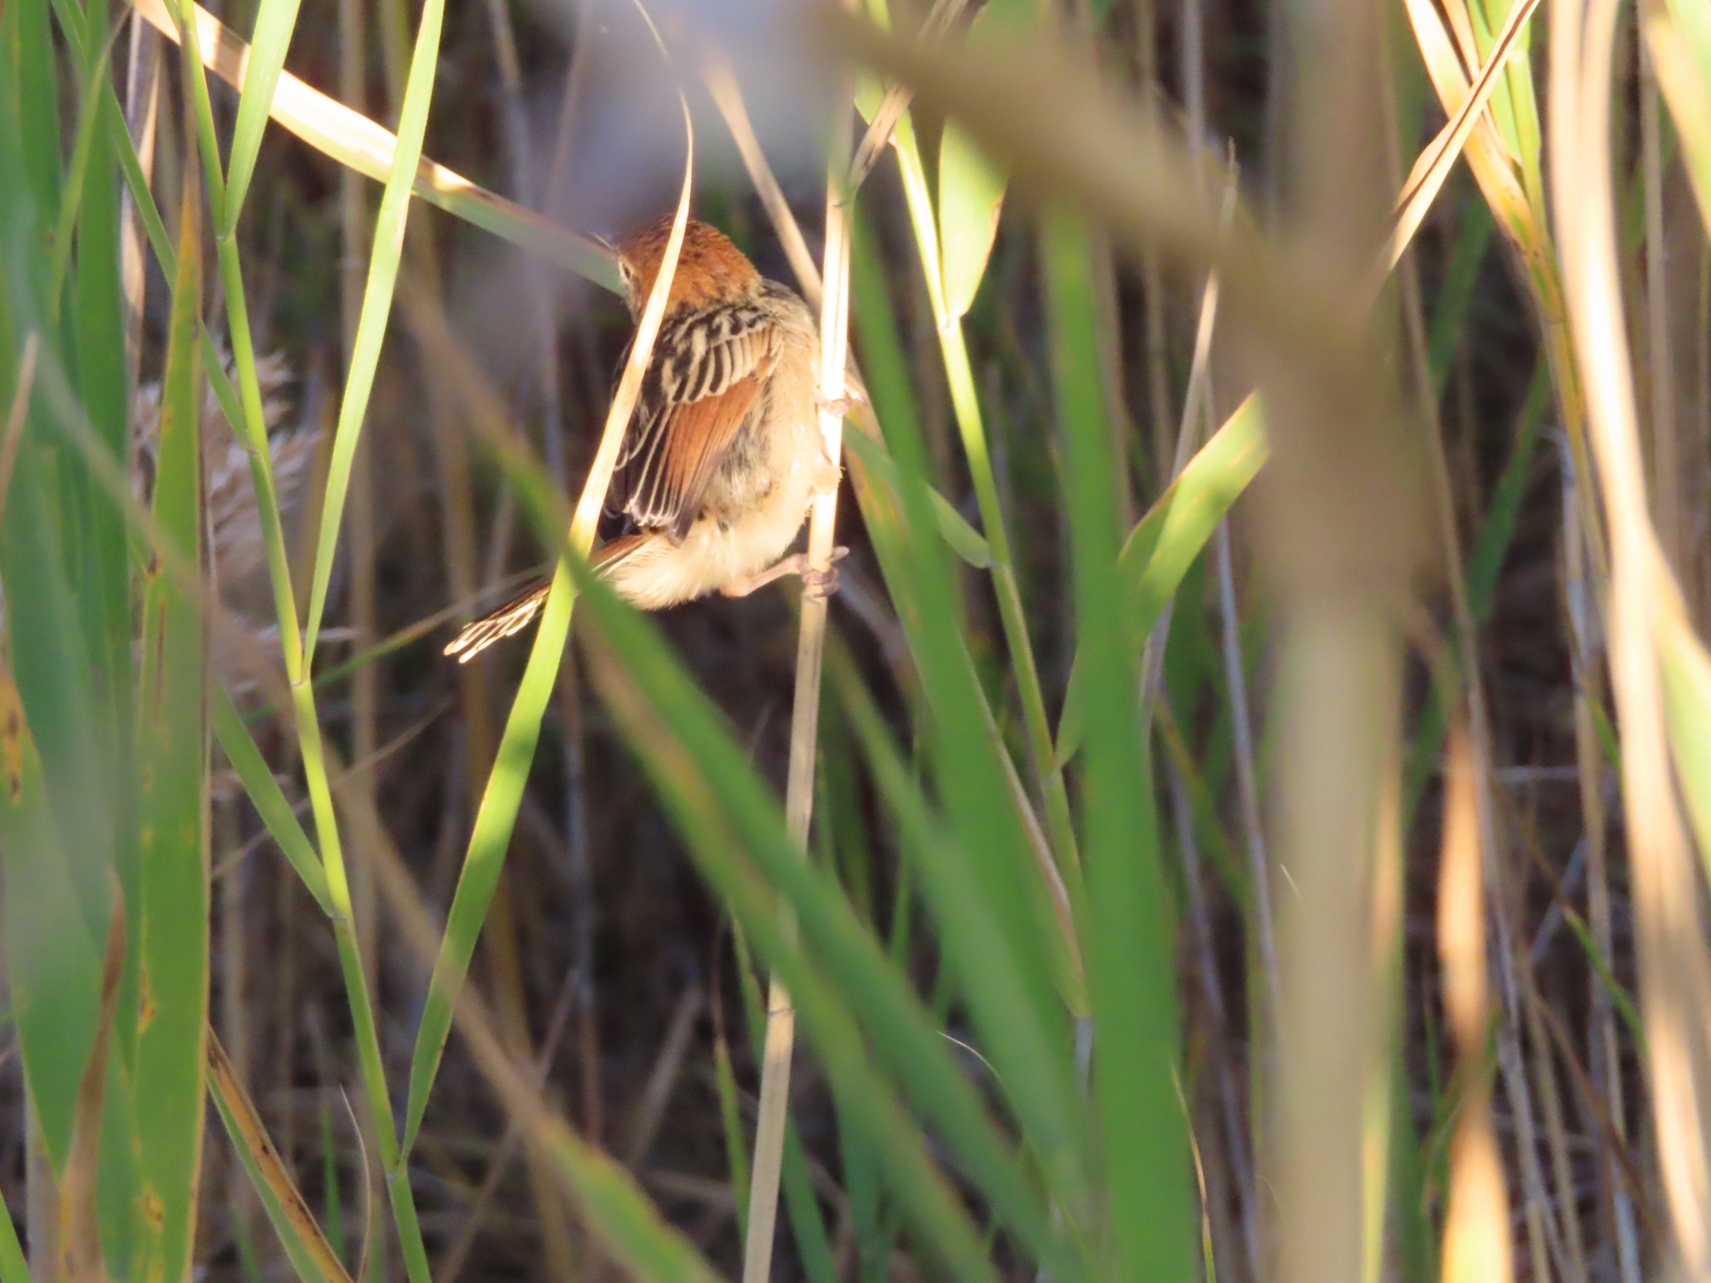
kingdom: Animalia
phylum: Chordata
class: Aves
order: Passeriformes
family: Cisticolidae
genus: Cisticola
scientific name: Cisticola tinniens
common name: Levaillant's cisticola
